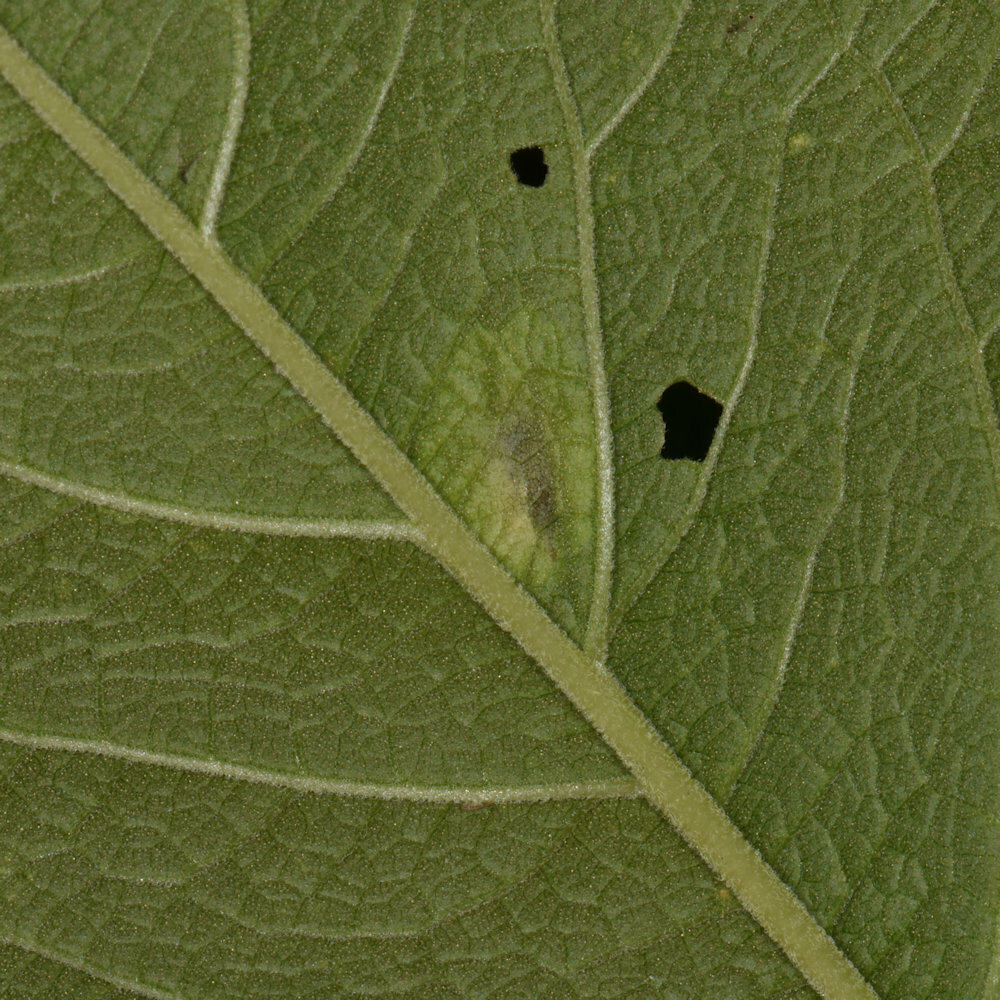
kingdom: Animalia
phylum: Arthropoda
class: Insecta
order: Diptera
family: Agromyzidae
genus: Calycomyza
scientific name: Calycomyza flavinotum
